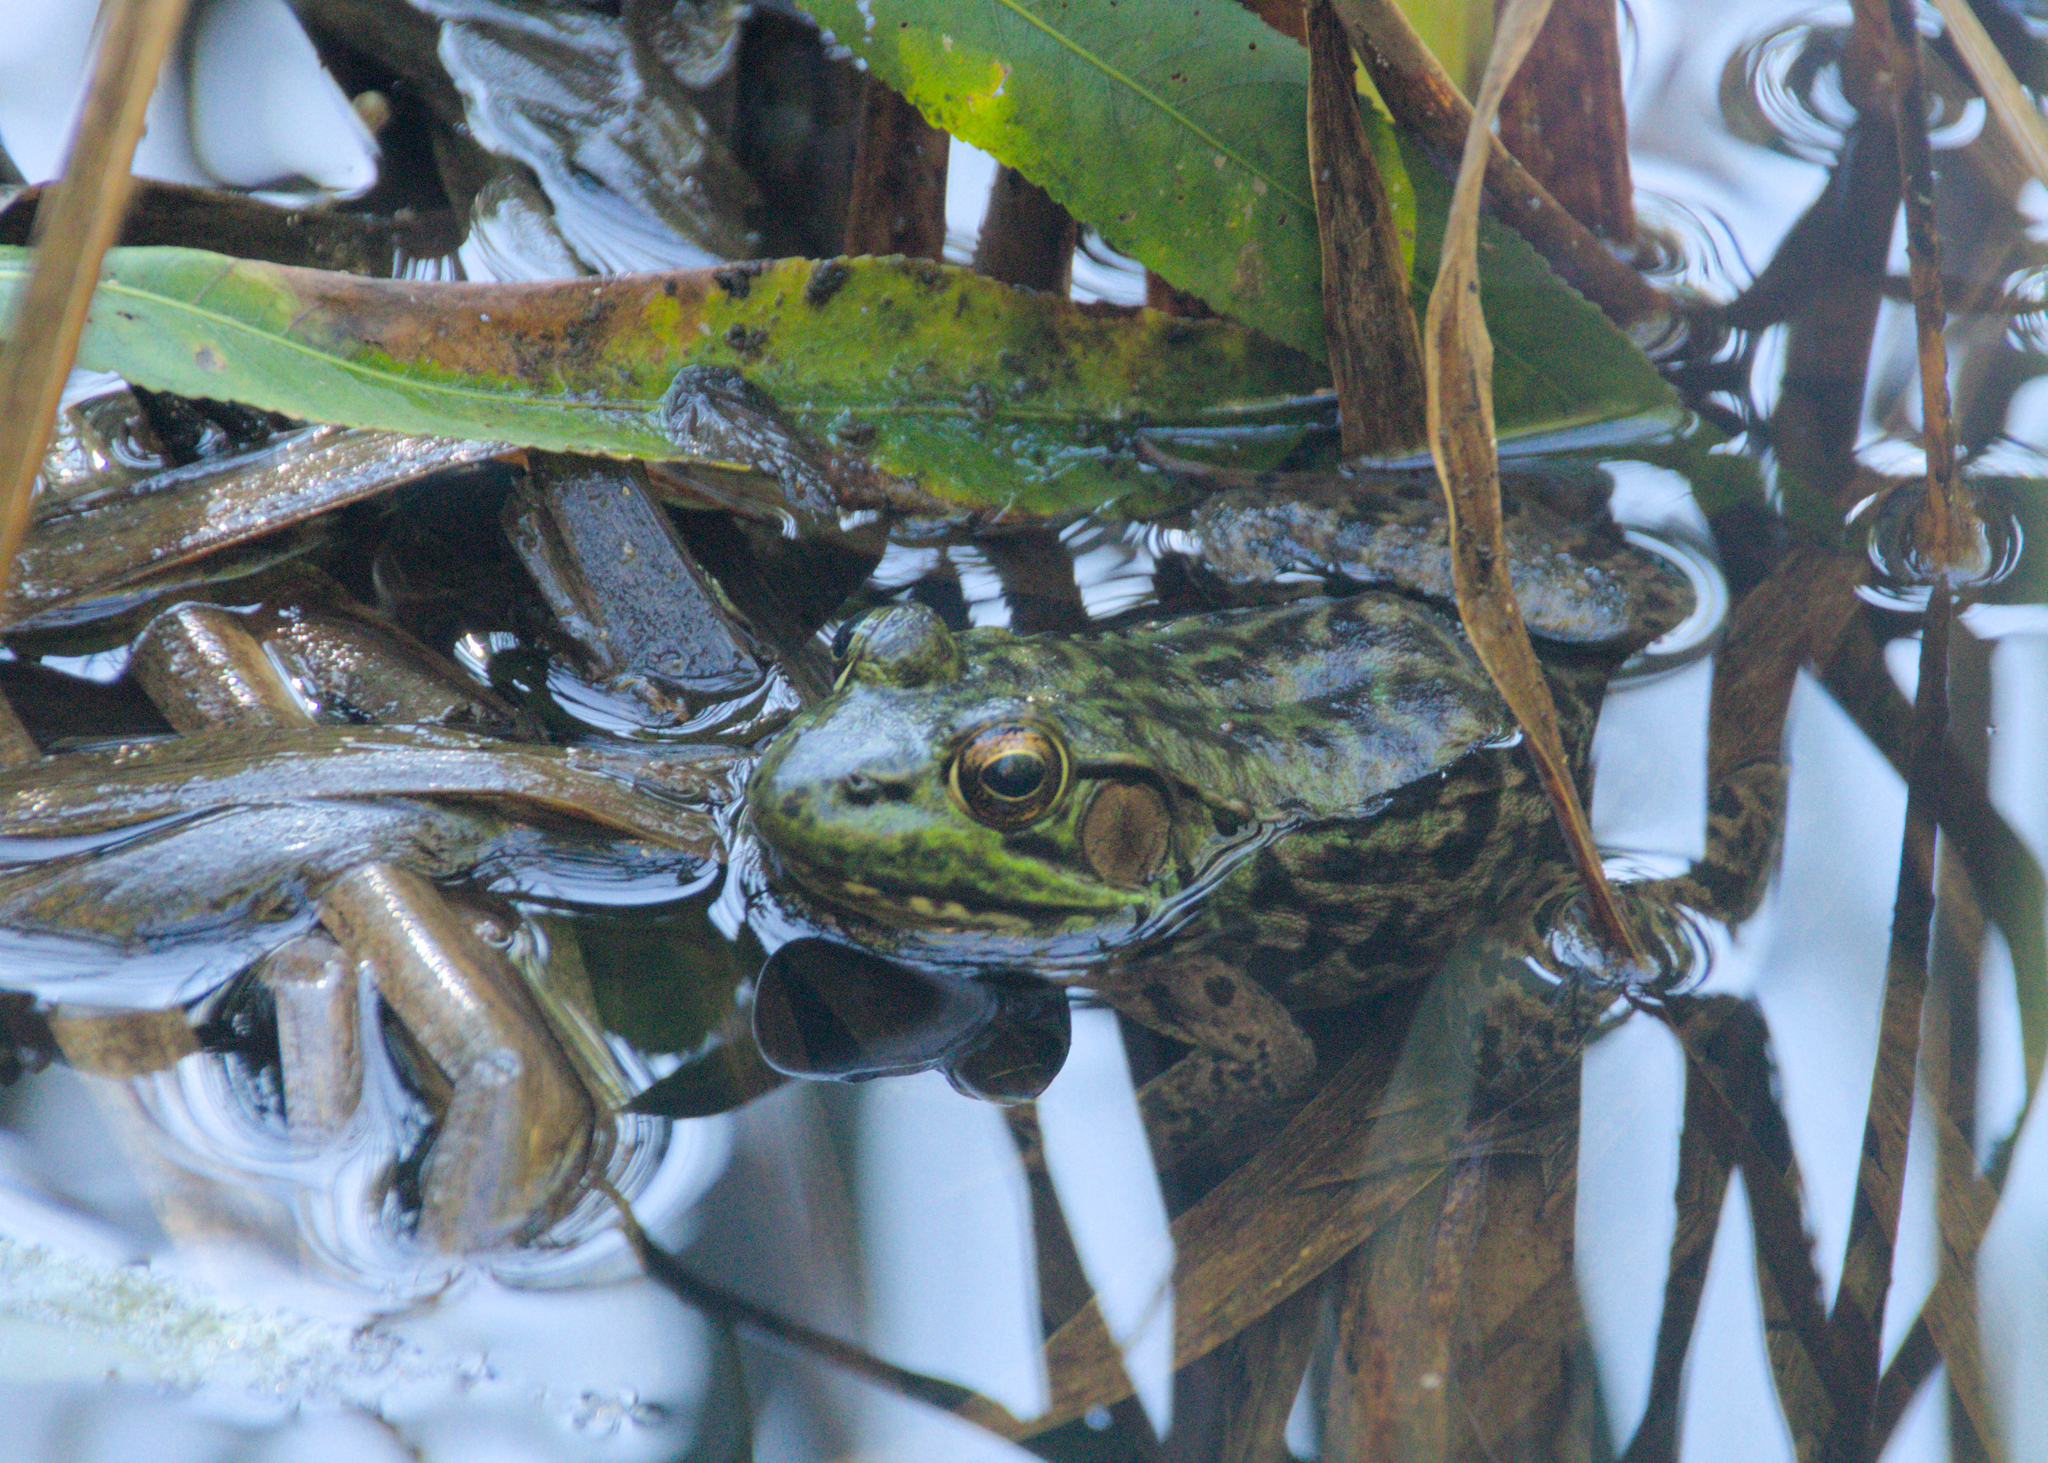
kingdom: Animalia
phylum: Chordata
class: Amphibia
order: Anura
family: Ranidae
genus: Lithobates
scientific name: Lithobates clamitans
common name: Green frog
